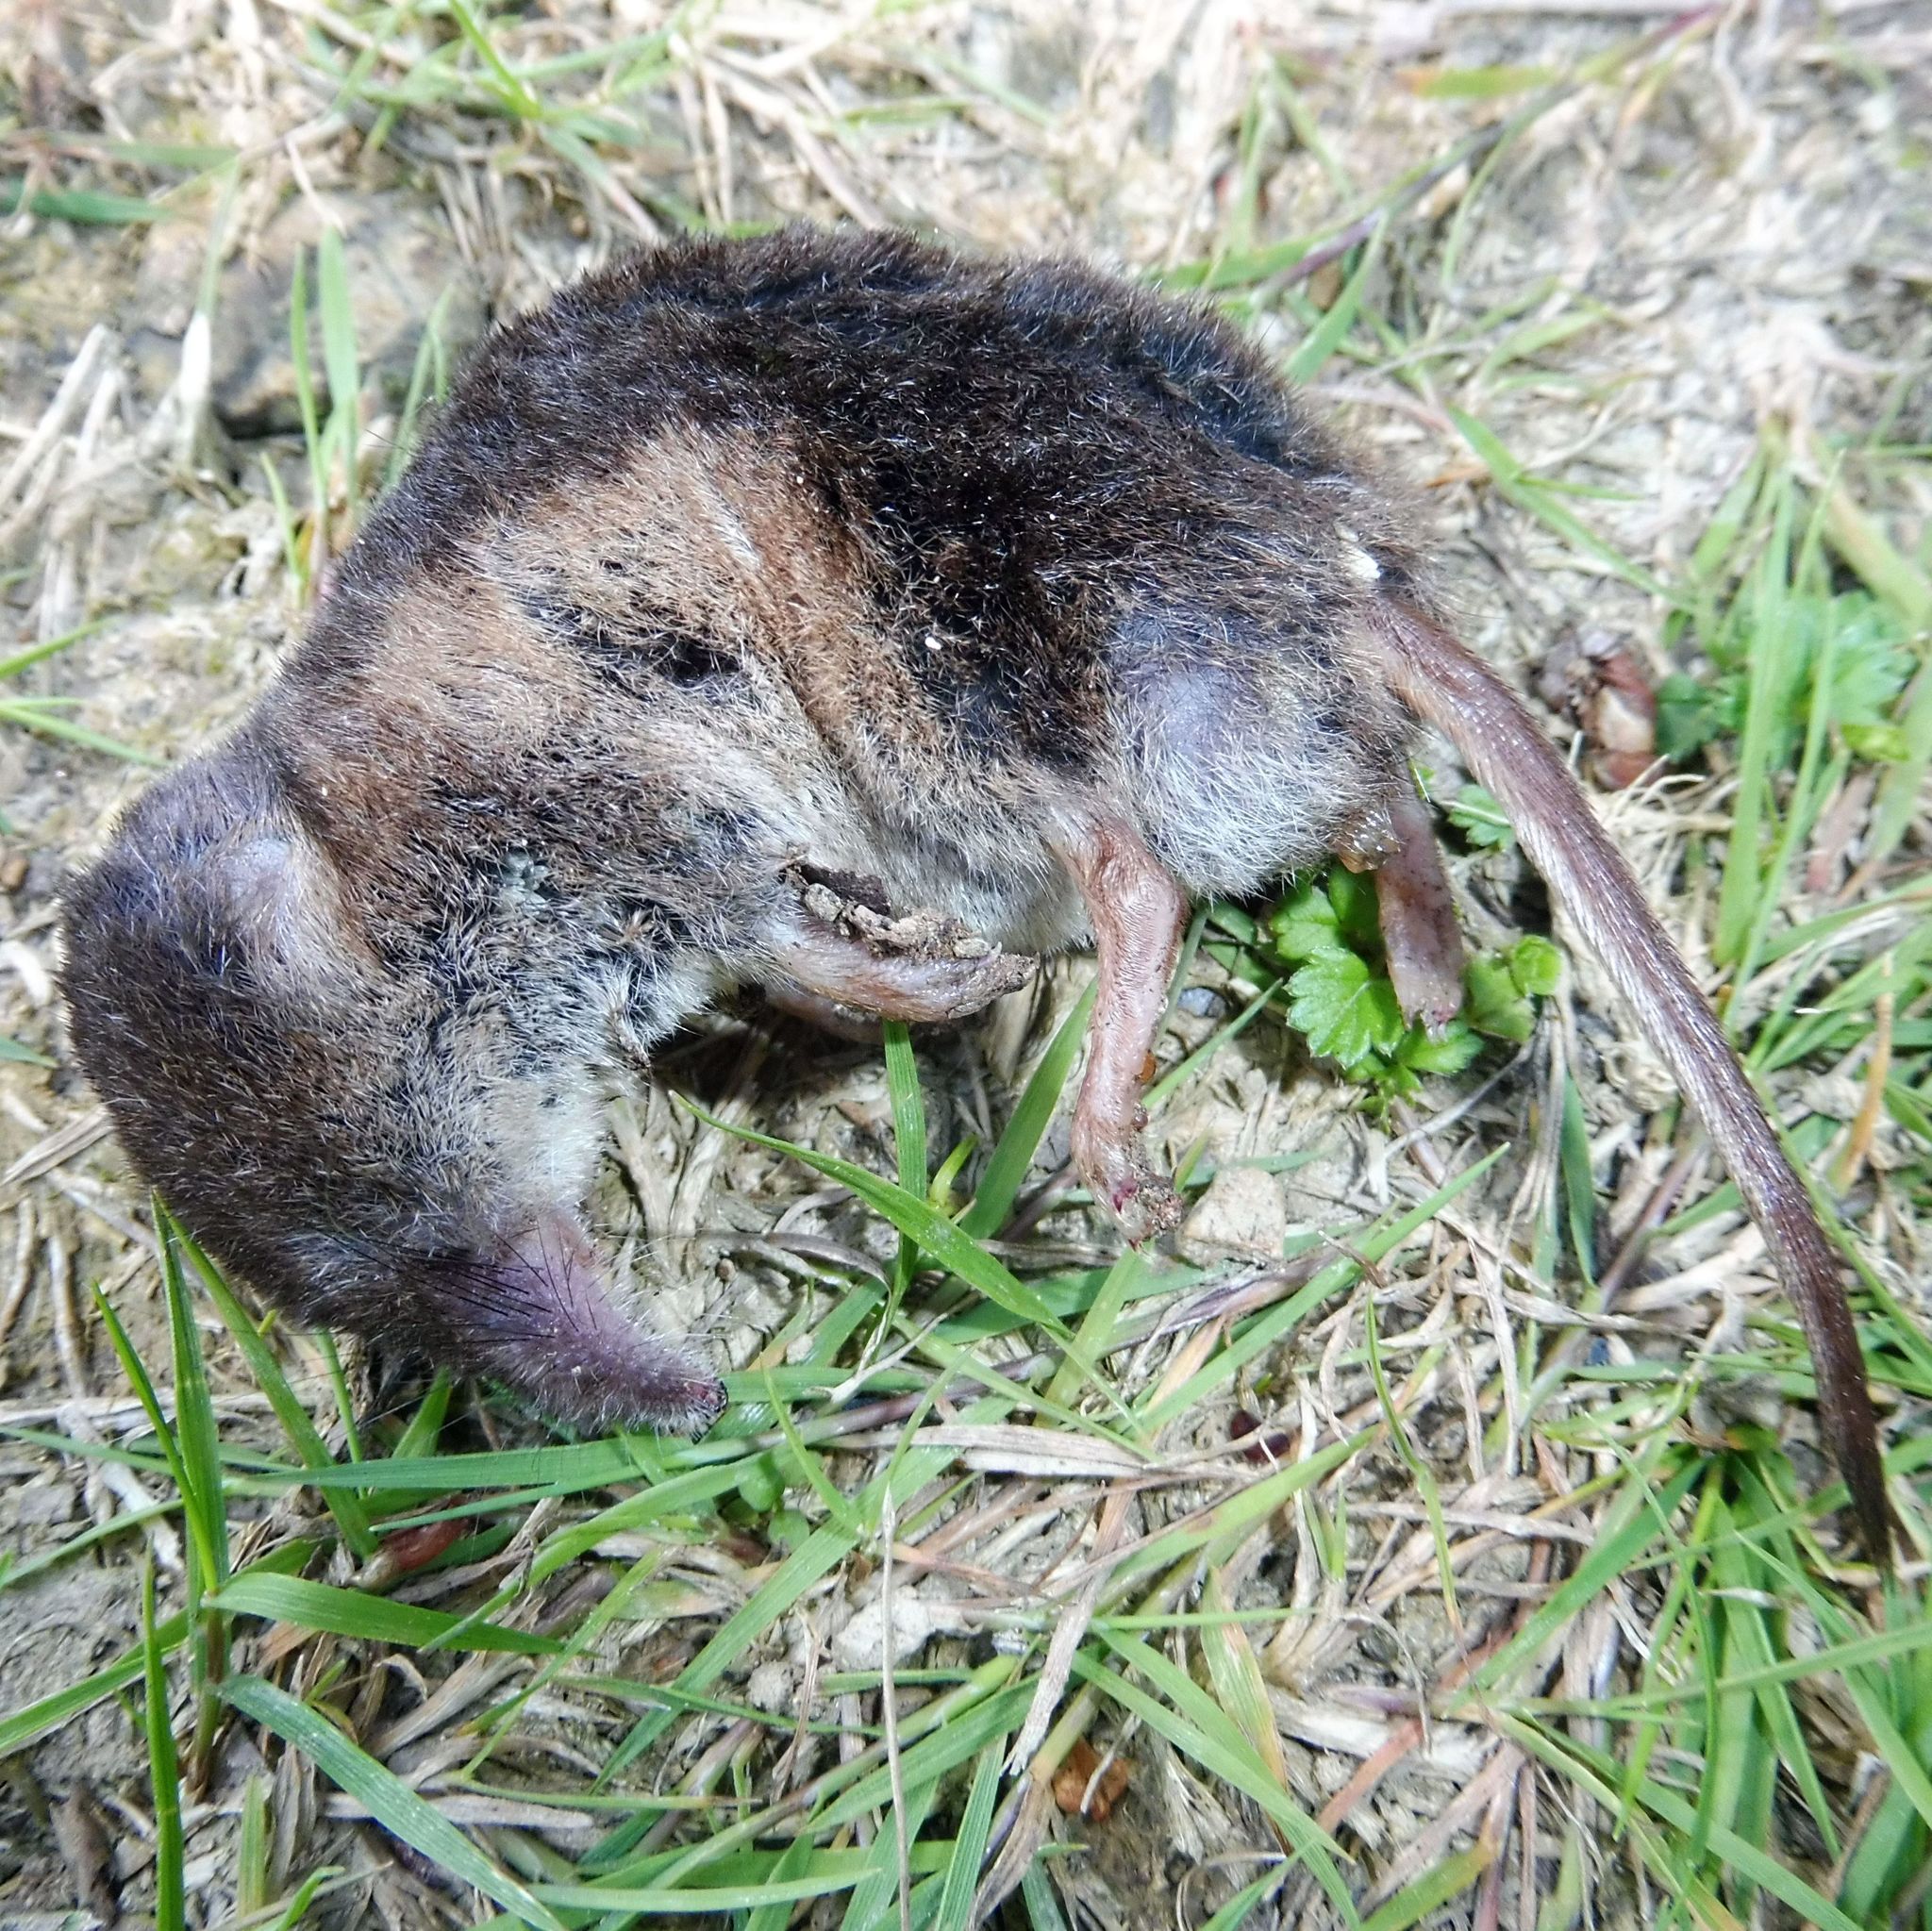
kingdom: Animalia
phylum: Chordata
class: Mammalia
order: Soricomorpha
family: Soricidae
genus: Sorex
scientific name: Sorex araneus
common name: Common shrew
